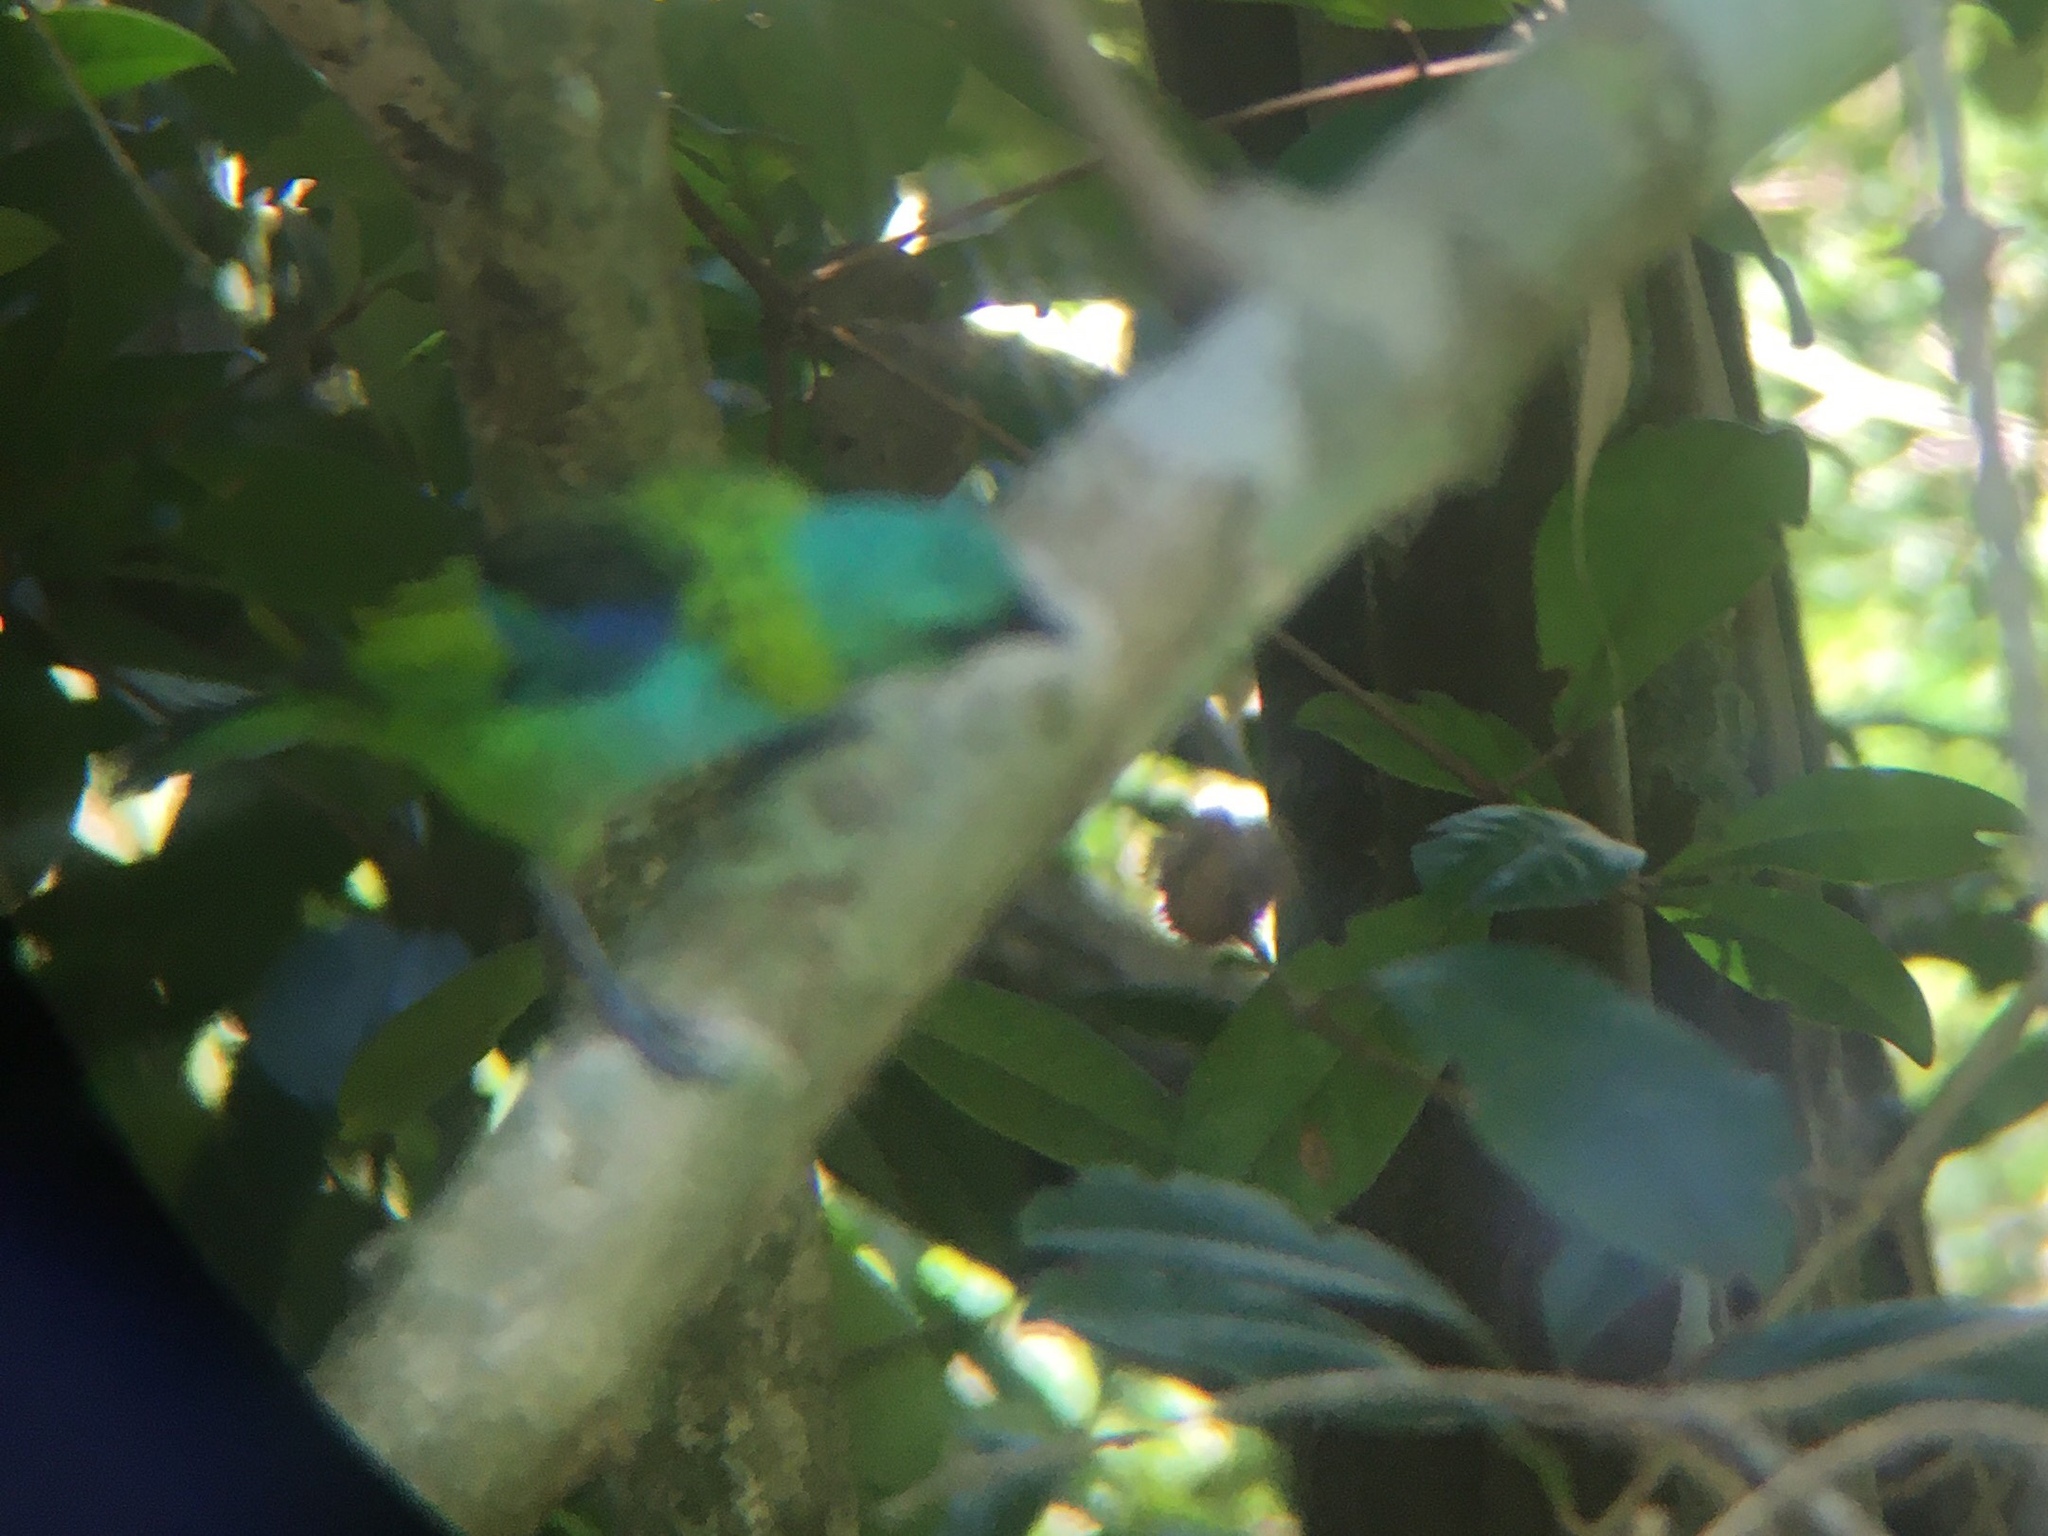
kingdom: Animalia
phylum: Chordata
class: Aves
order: Passeriformes
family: Thraupidae
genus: Tangara
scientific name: Tangara seledon
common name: Green-headed tanager
